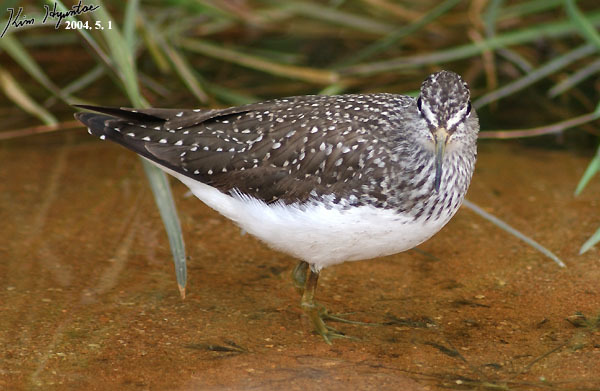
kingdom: Animalia
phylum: Chordata
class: Aves
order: Charadriiformes
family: Scolopacidae
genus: Tringa
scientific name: Tringa ochropus
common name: Green sandpiper
